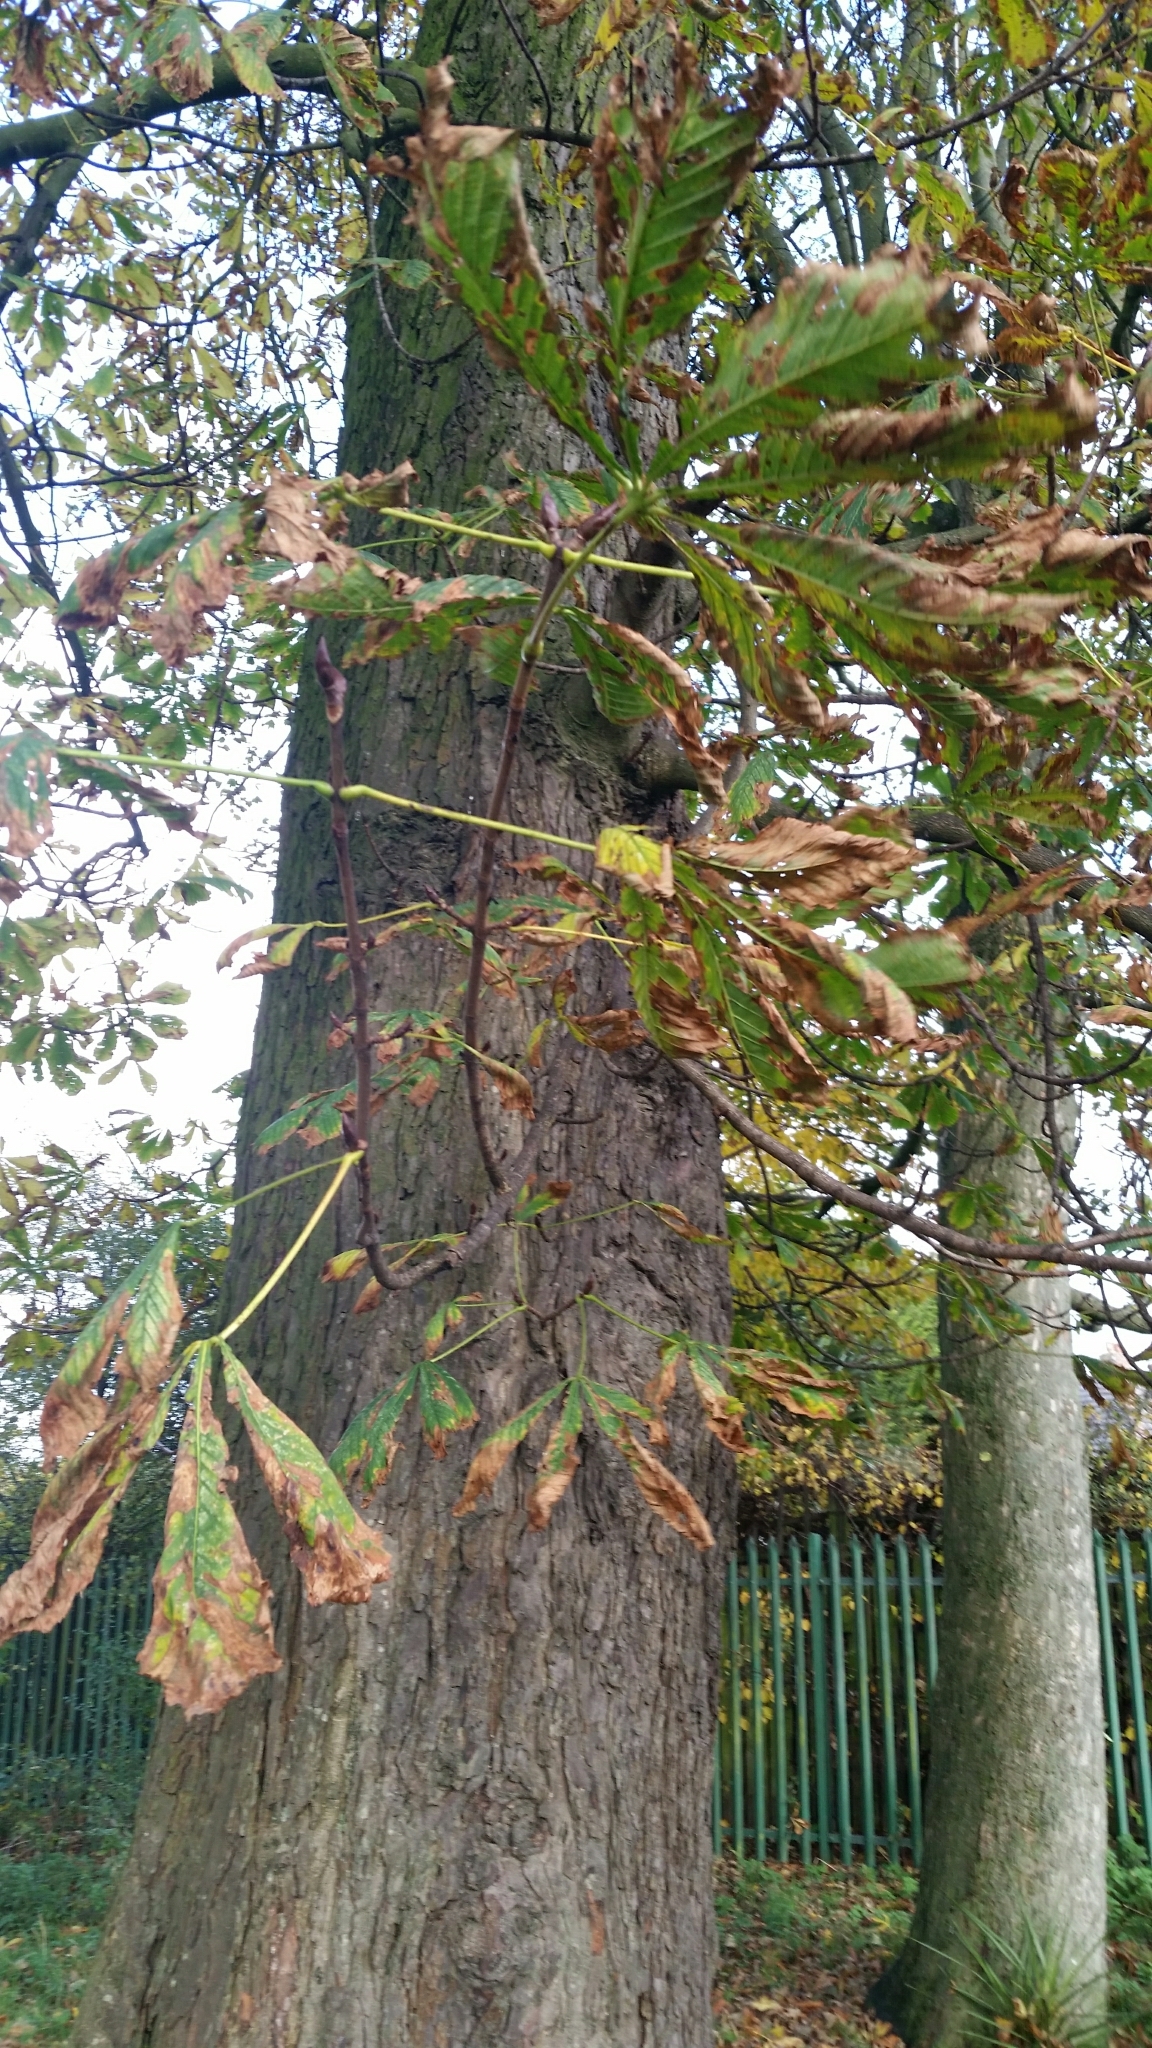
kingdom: Plantae
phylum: Tracheophyta
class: Magnoliopsida
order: Sapindales
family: Sapindaceae
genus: Aesculus
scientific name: Aesculus hippocastanum
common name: Horse-chestnut
